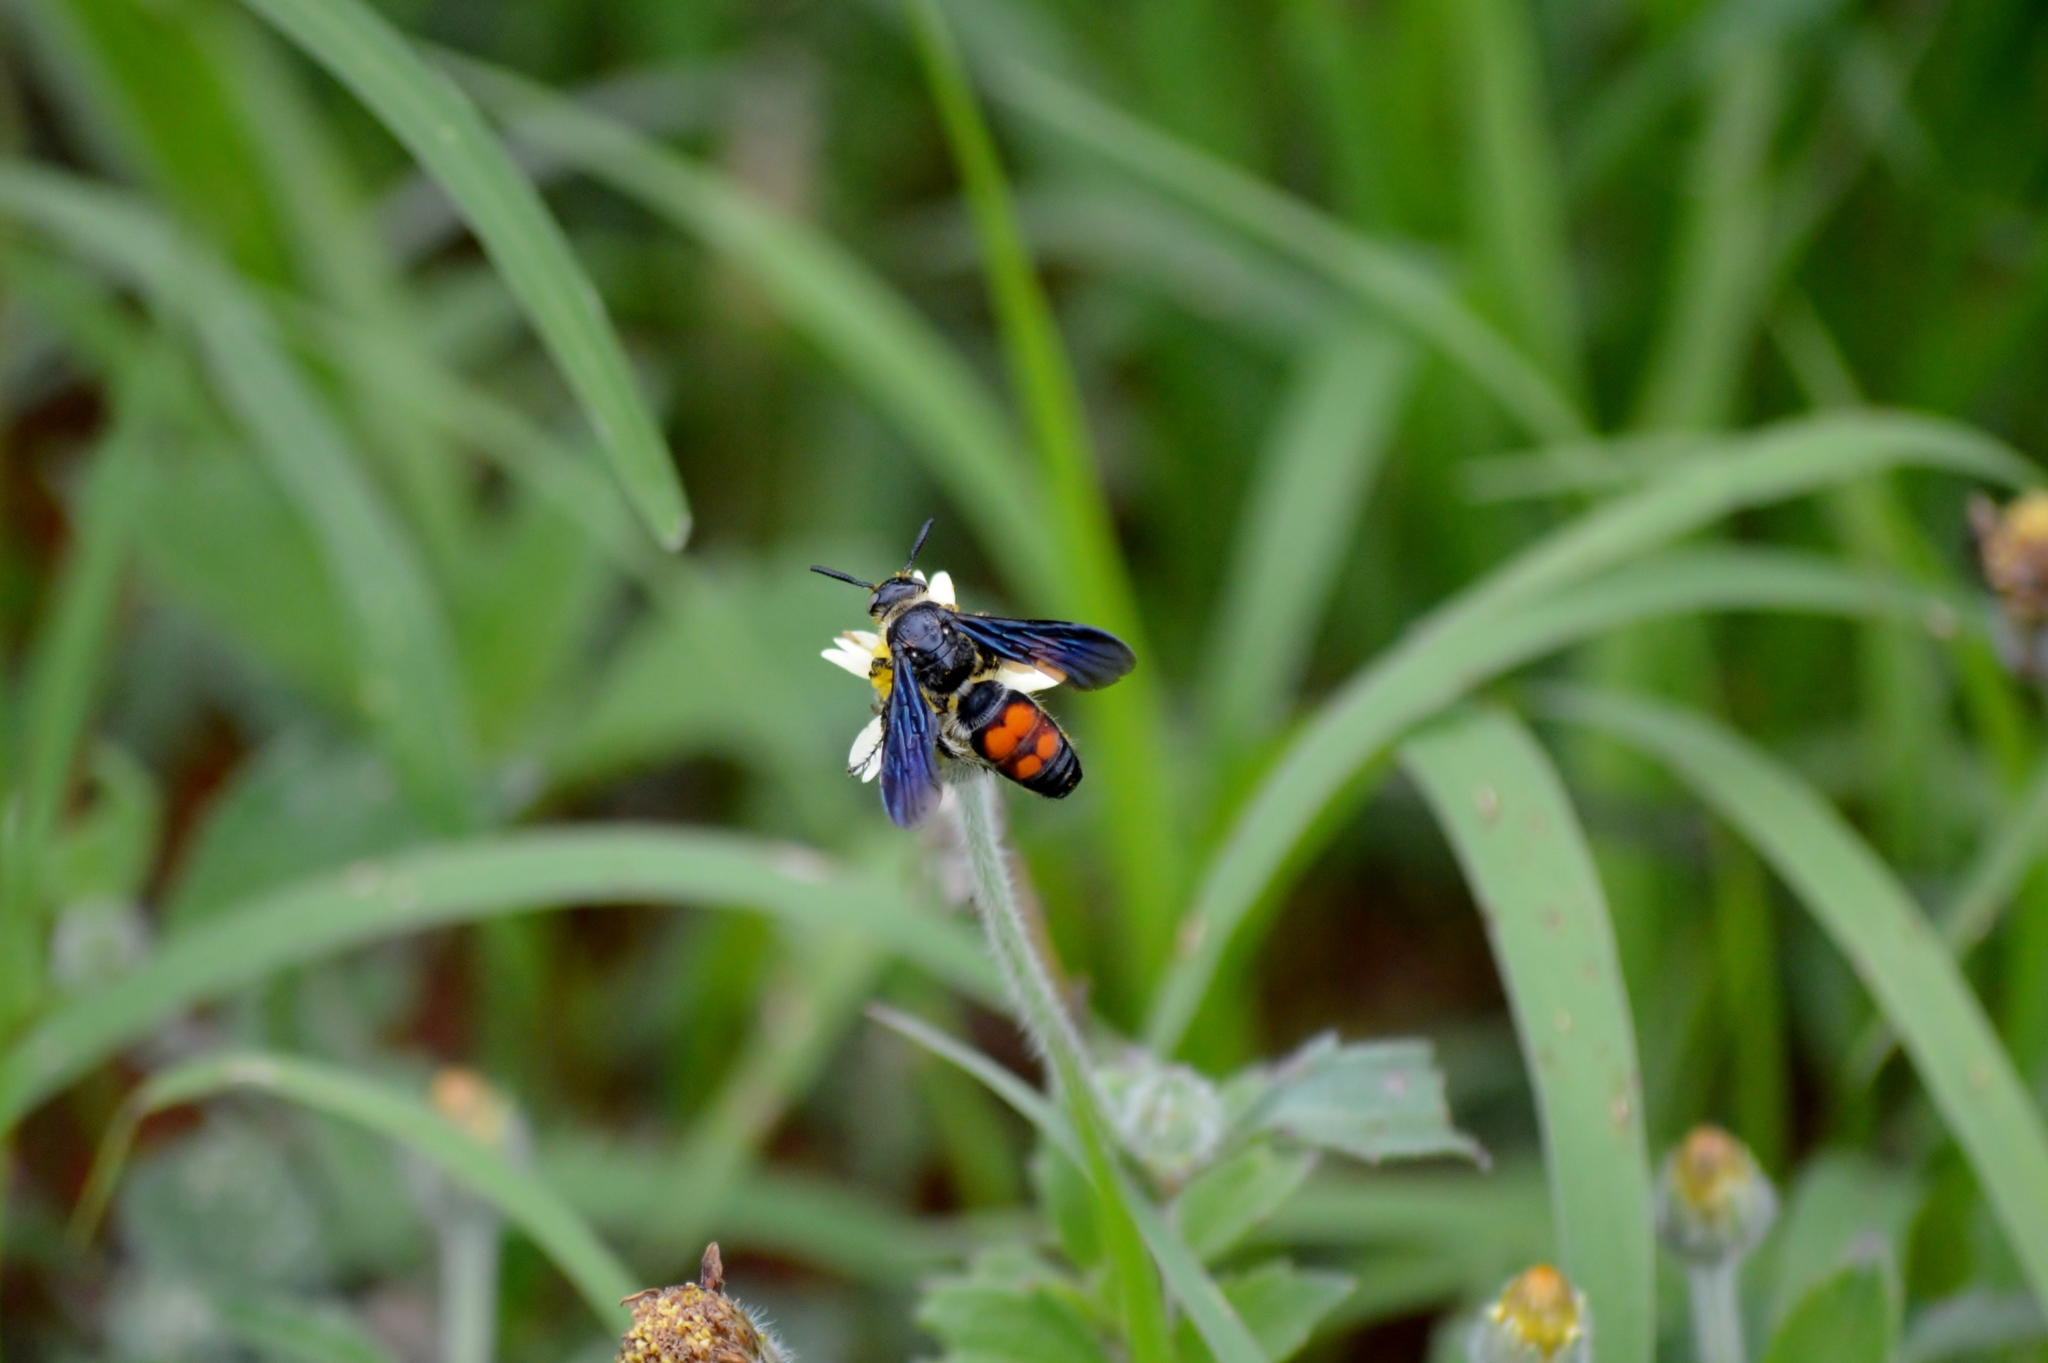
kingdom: Animalia
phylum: Arthropoda
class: Insecta
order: Hymenoptera
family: Scoliidae
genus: Dielis
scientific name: Dielis dorsata
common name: Scoliid wasp
